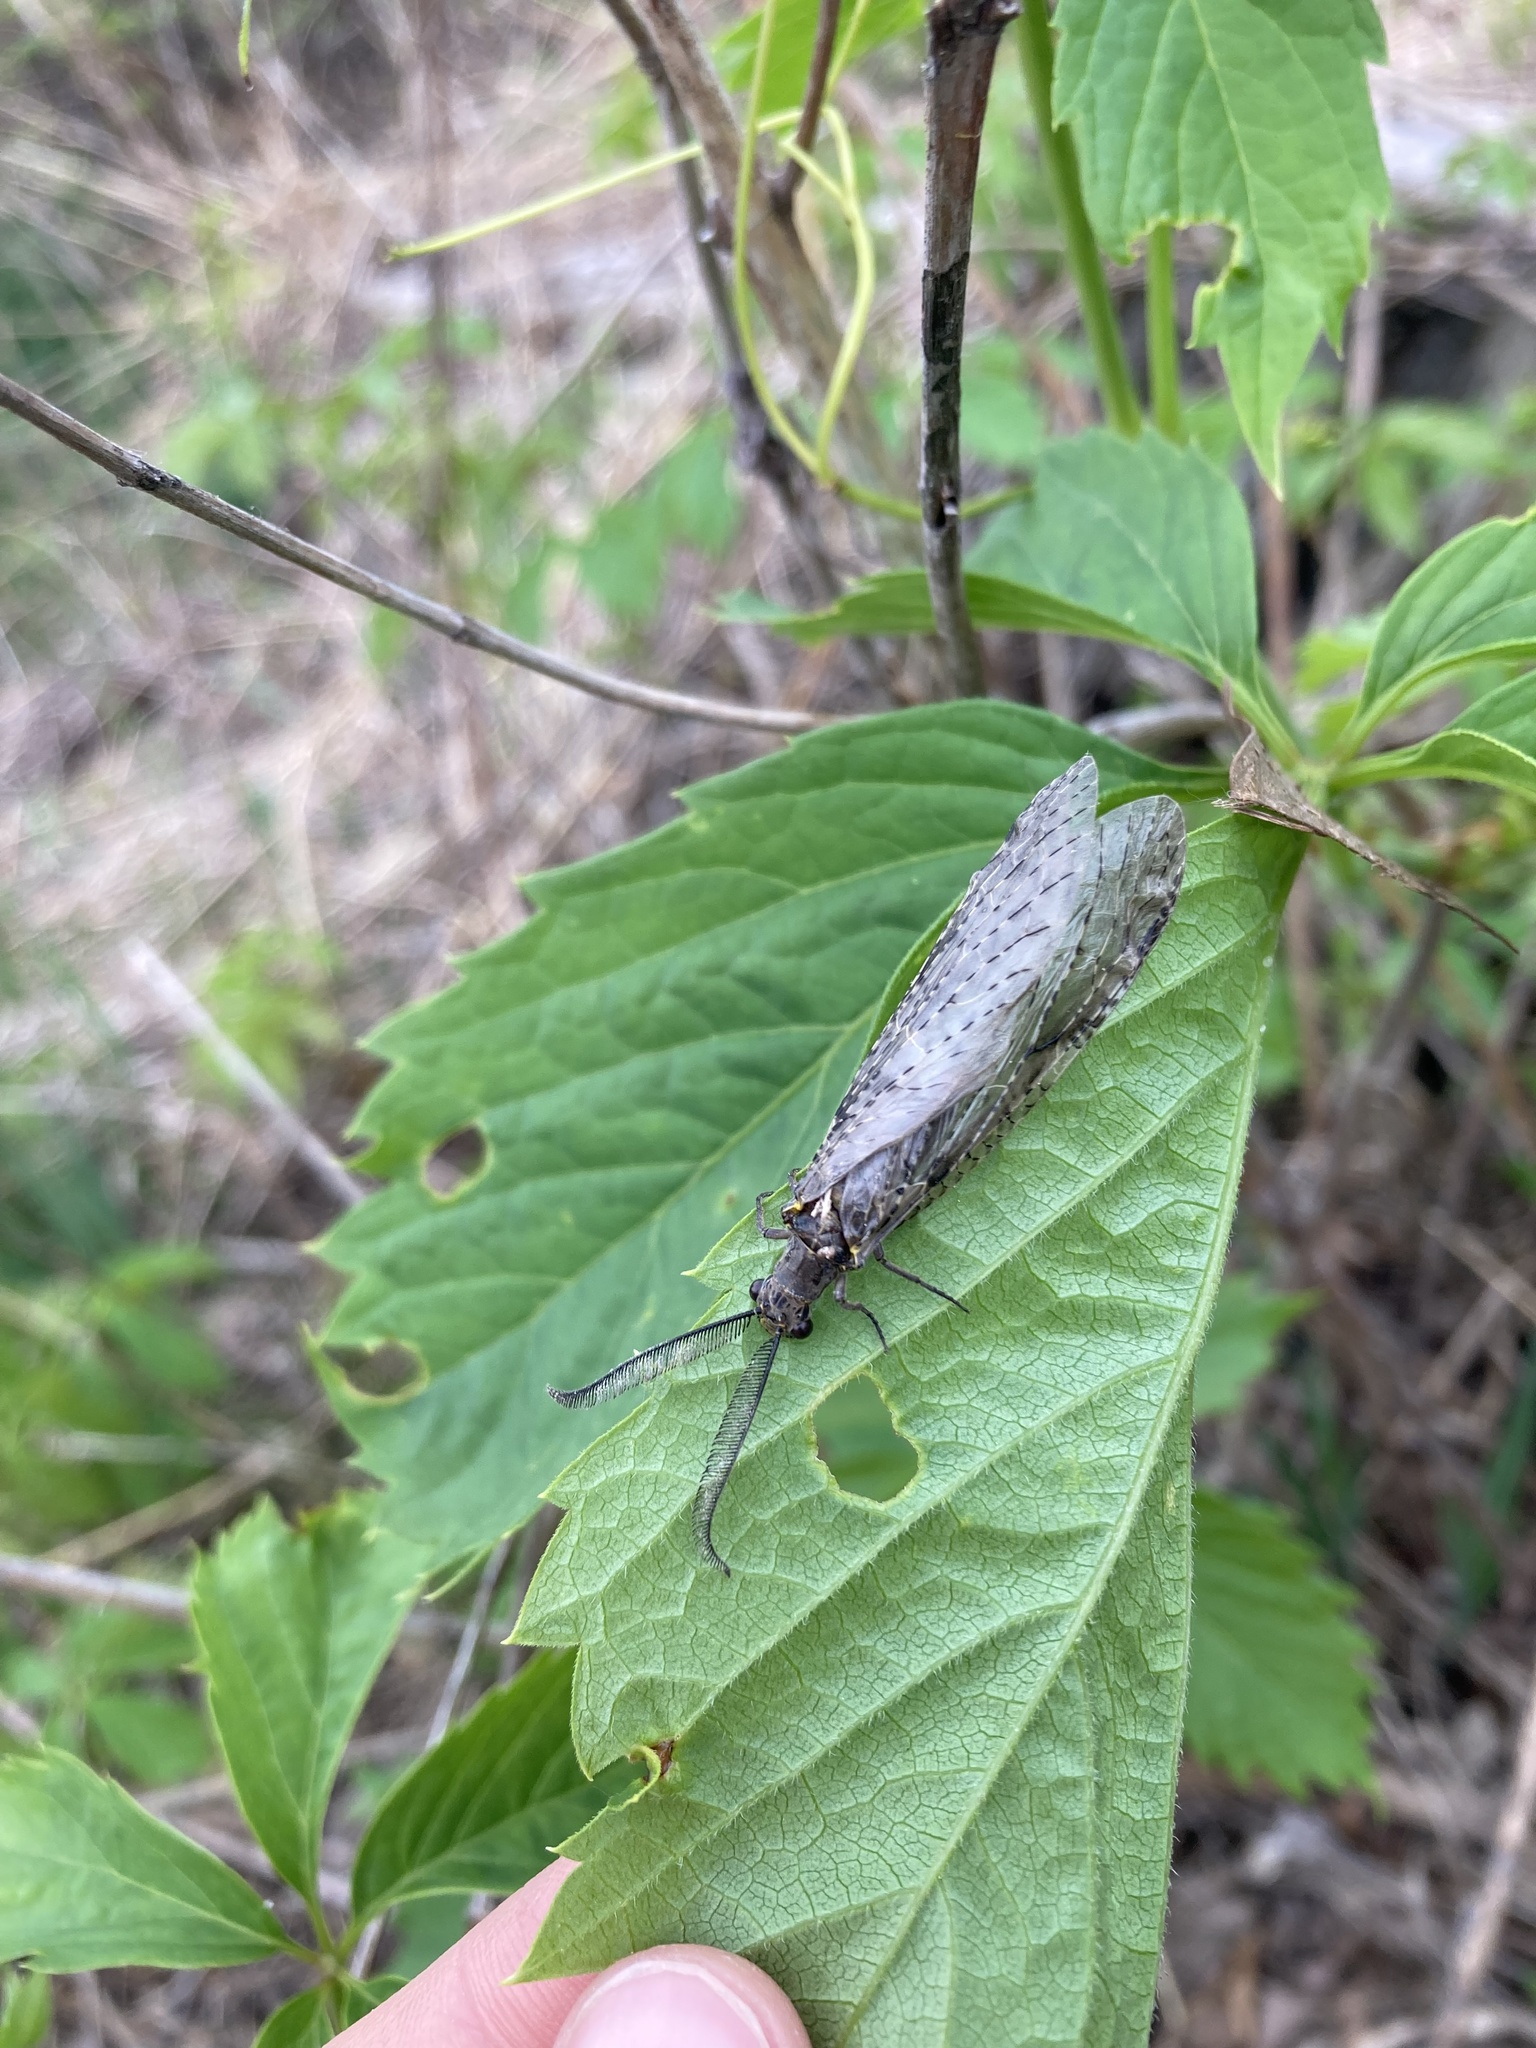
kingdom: Animalia
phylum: Arthropoda
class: Insecta
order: Megaloptera
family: Corydalidae
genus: Chauliodes
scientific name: Chauliodes rastricornis
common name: Spring fishfly
